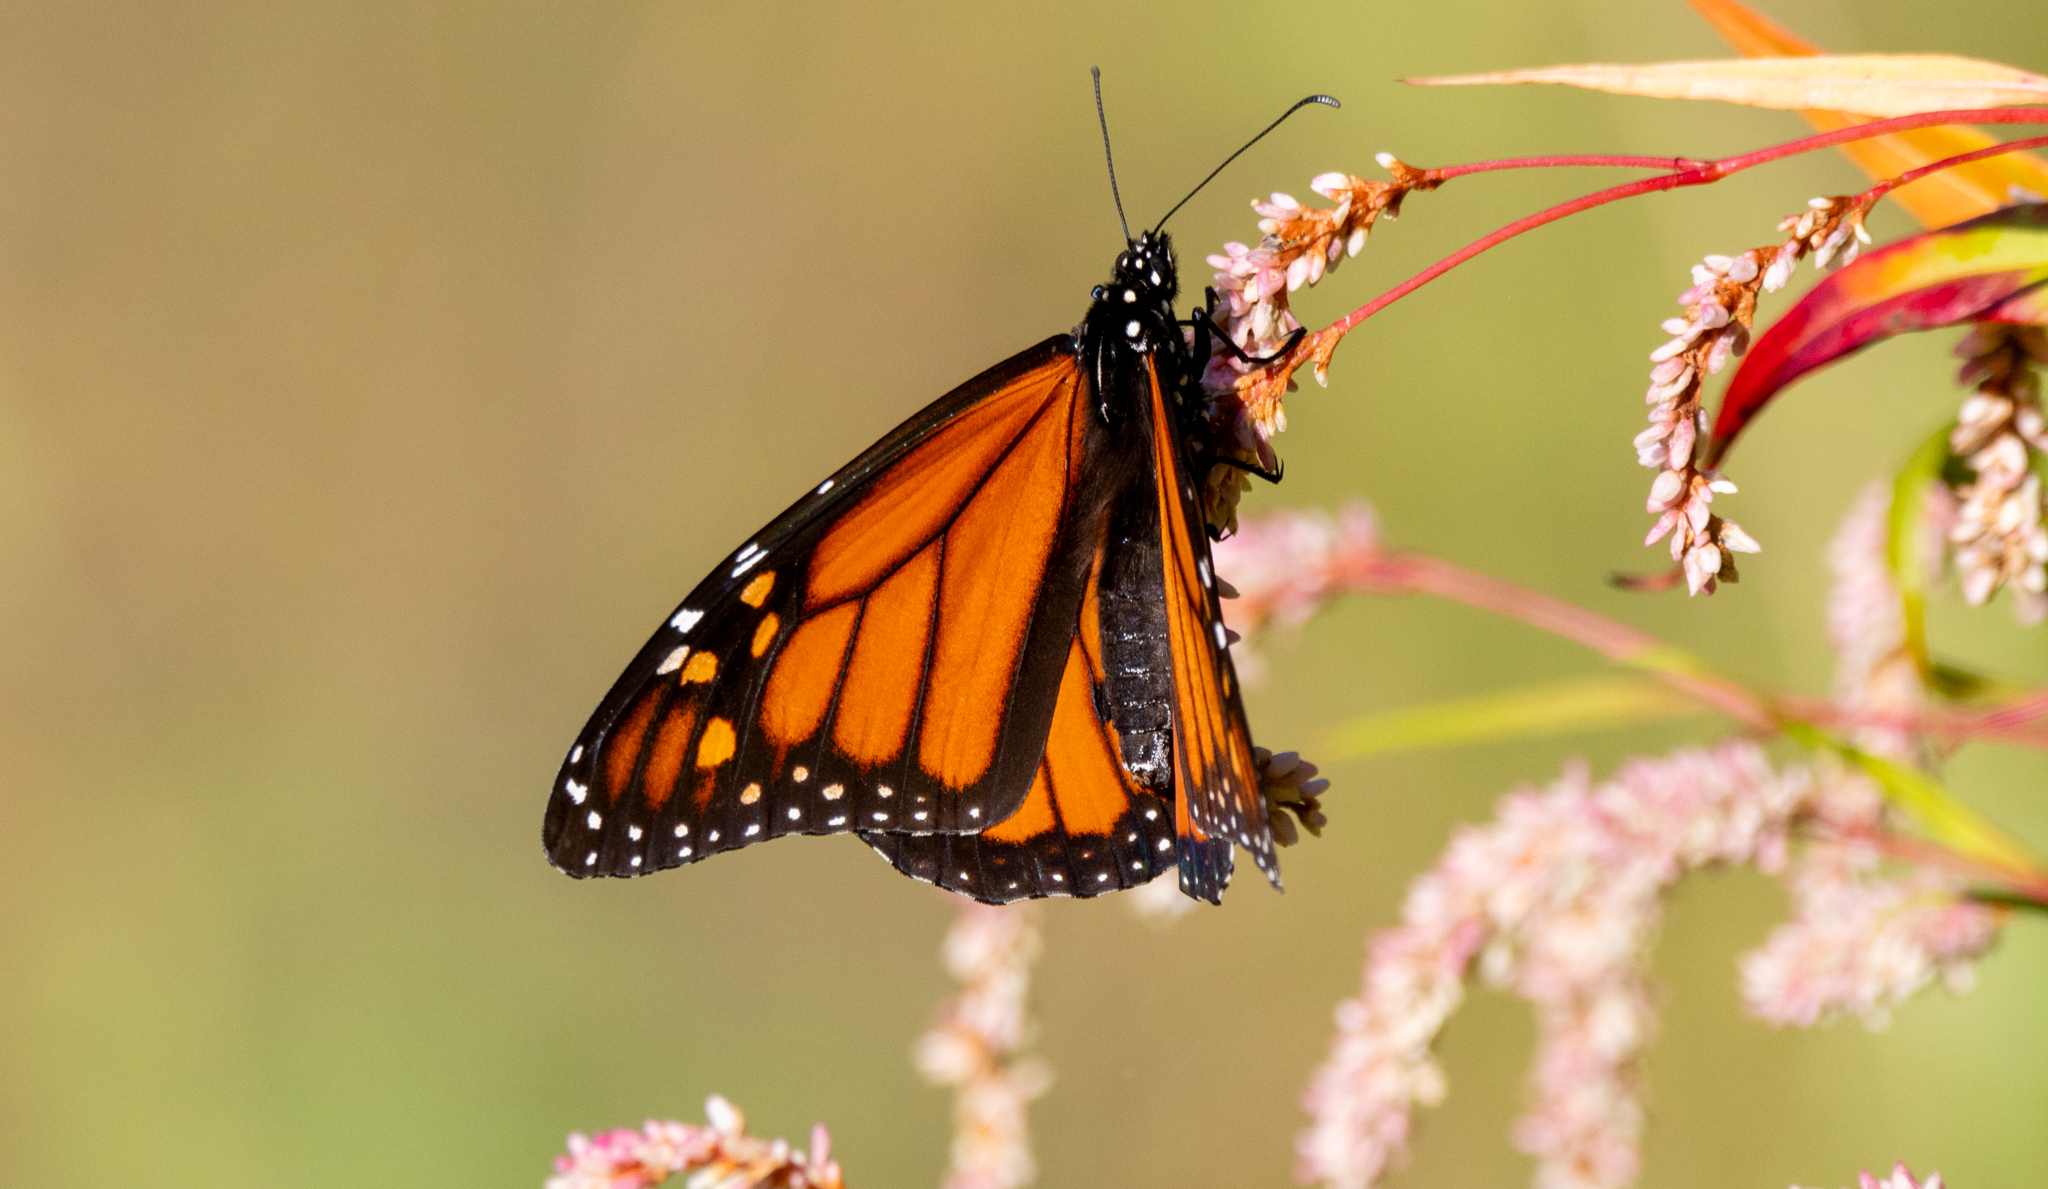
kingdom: Animalia
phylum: Arthropoda
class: Insecta
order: Lepidoptera
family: Nymphalidae
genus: Danaus
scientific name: Danaus plexippus
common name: Monarch
